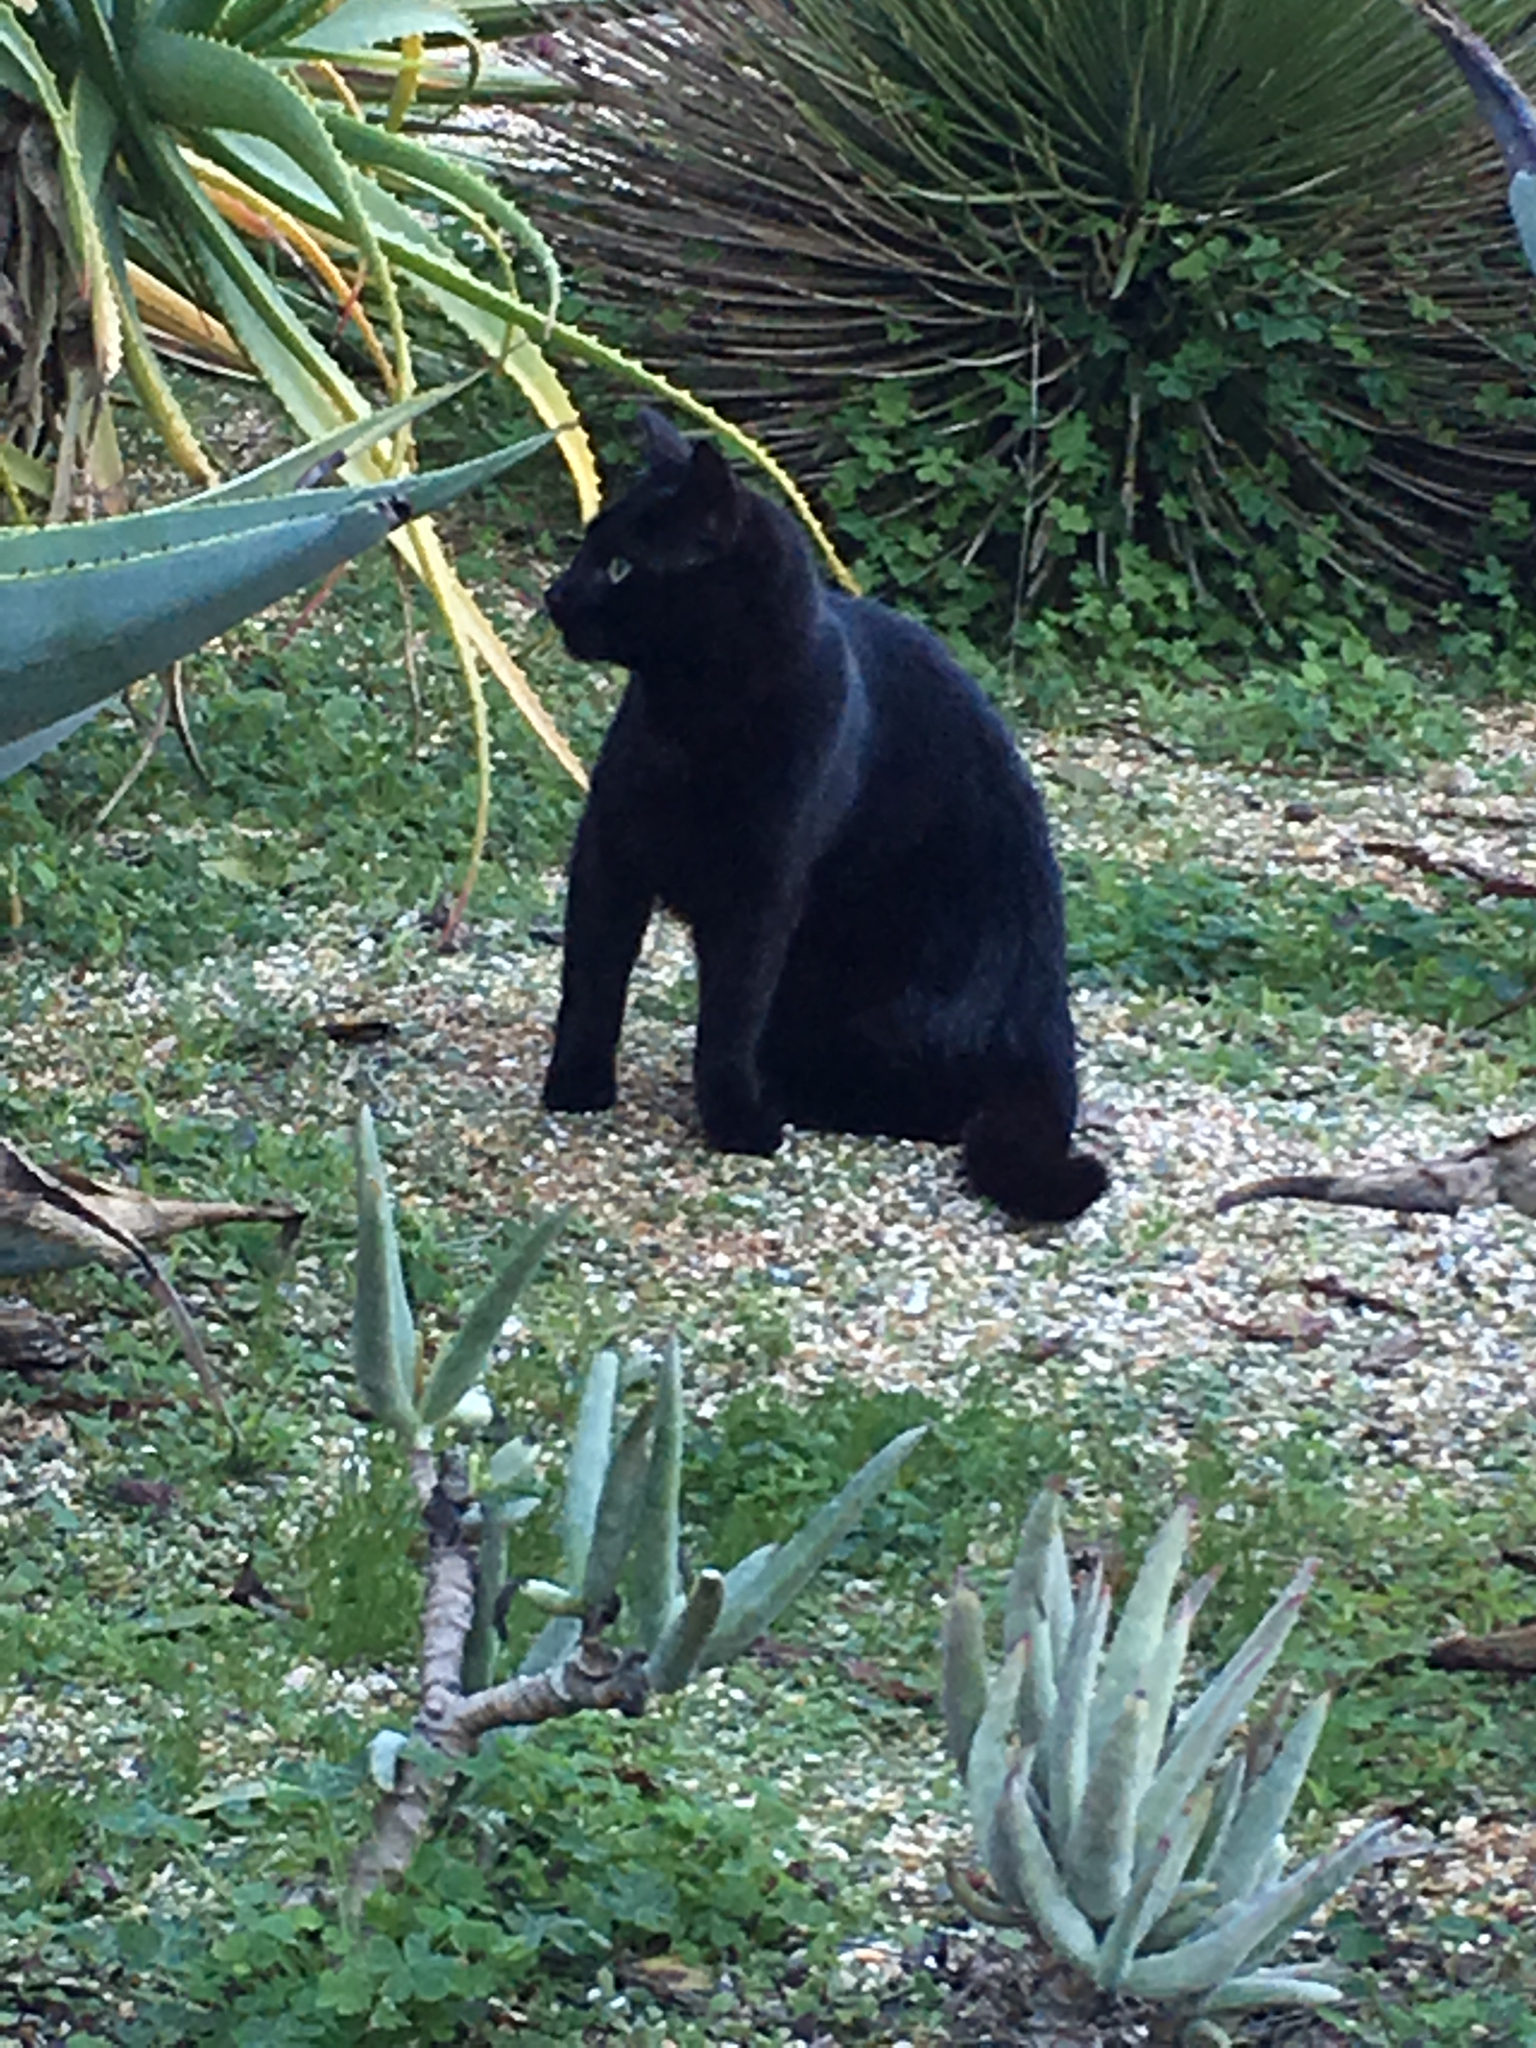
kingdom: Animalia
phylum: Chordata
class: Mammalia
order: Carnivora
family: Felidae
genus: Felis
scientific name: Felis catus
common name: Domestic cat
